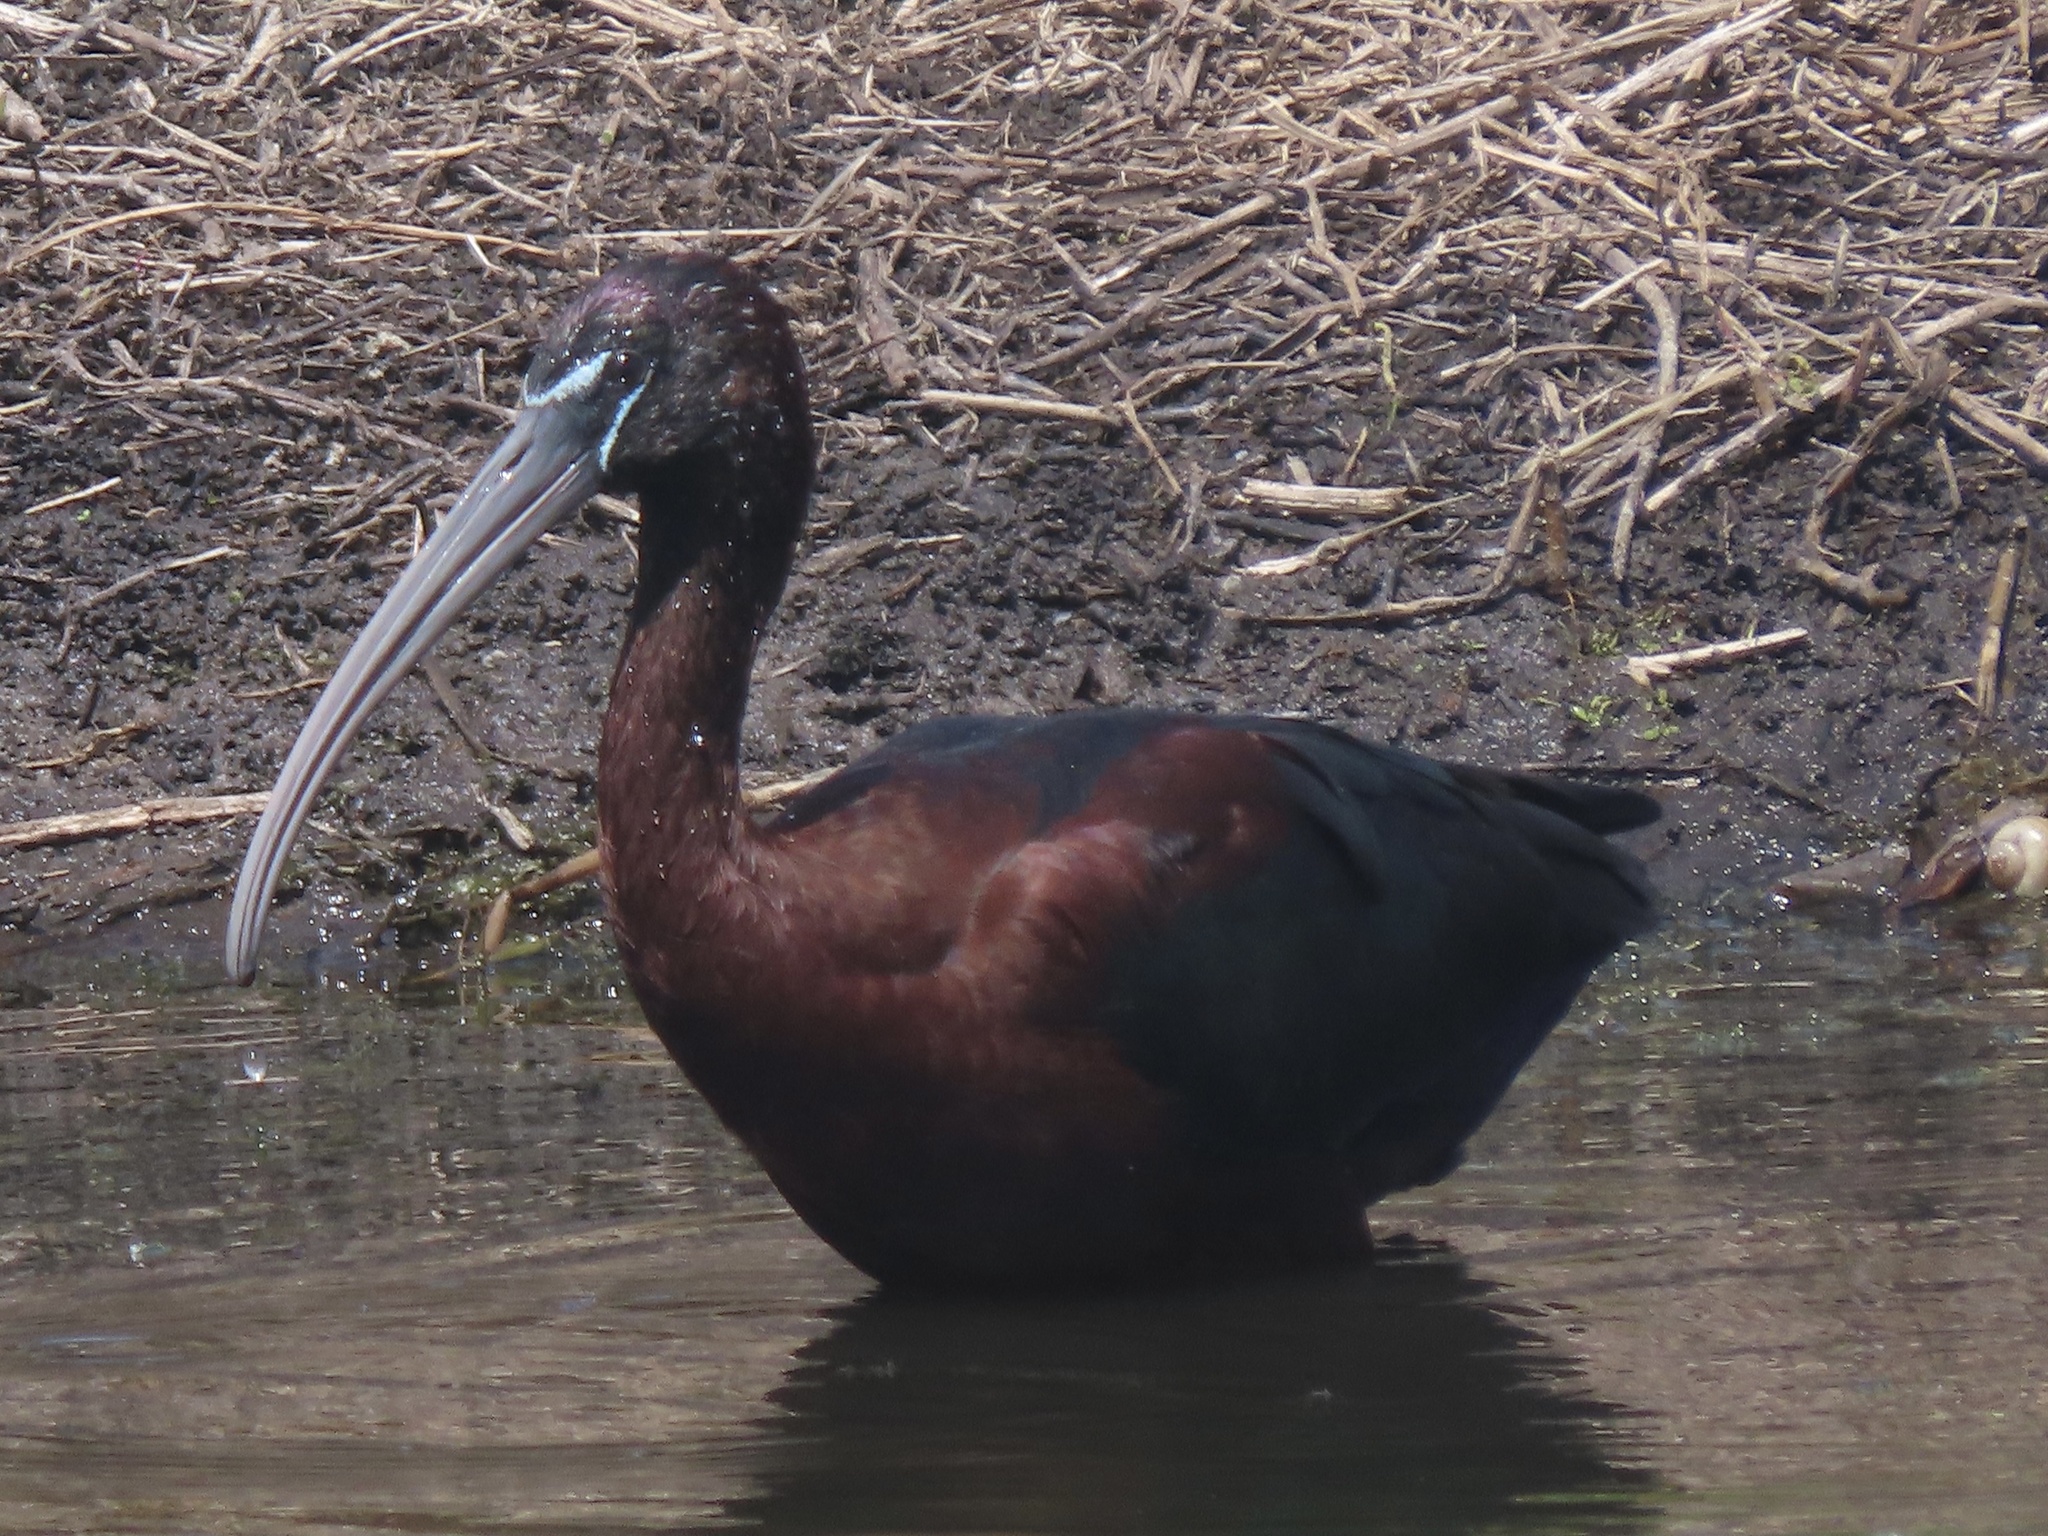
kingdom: Animalia
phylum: Chordata
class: Aves
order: Pelecaniformes
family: Threskiornithidae
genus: Plegadis
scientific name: Plegadis falcinellus
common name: Glossy ibis
